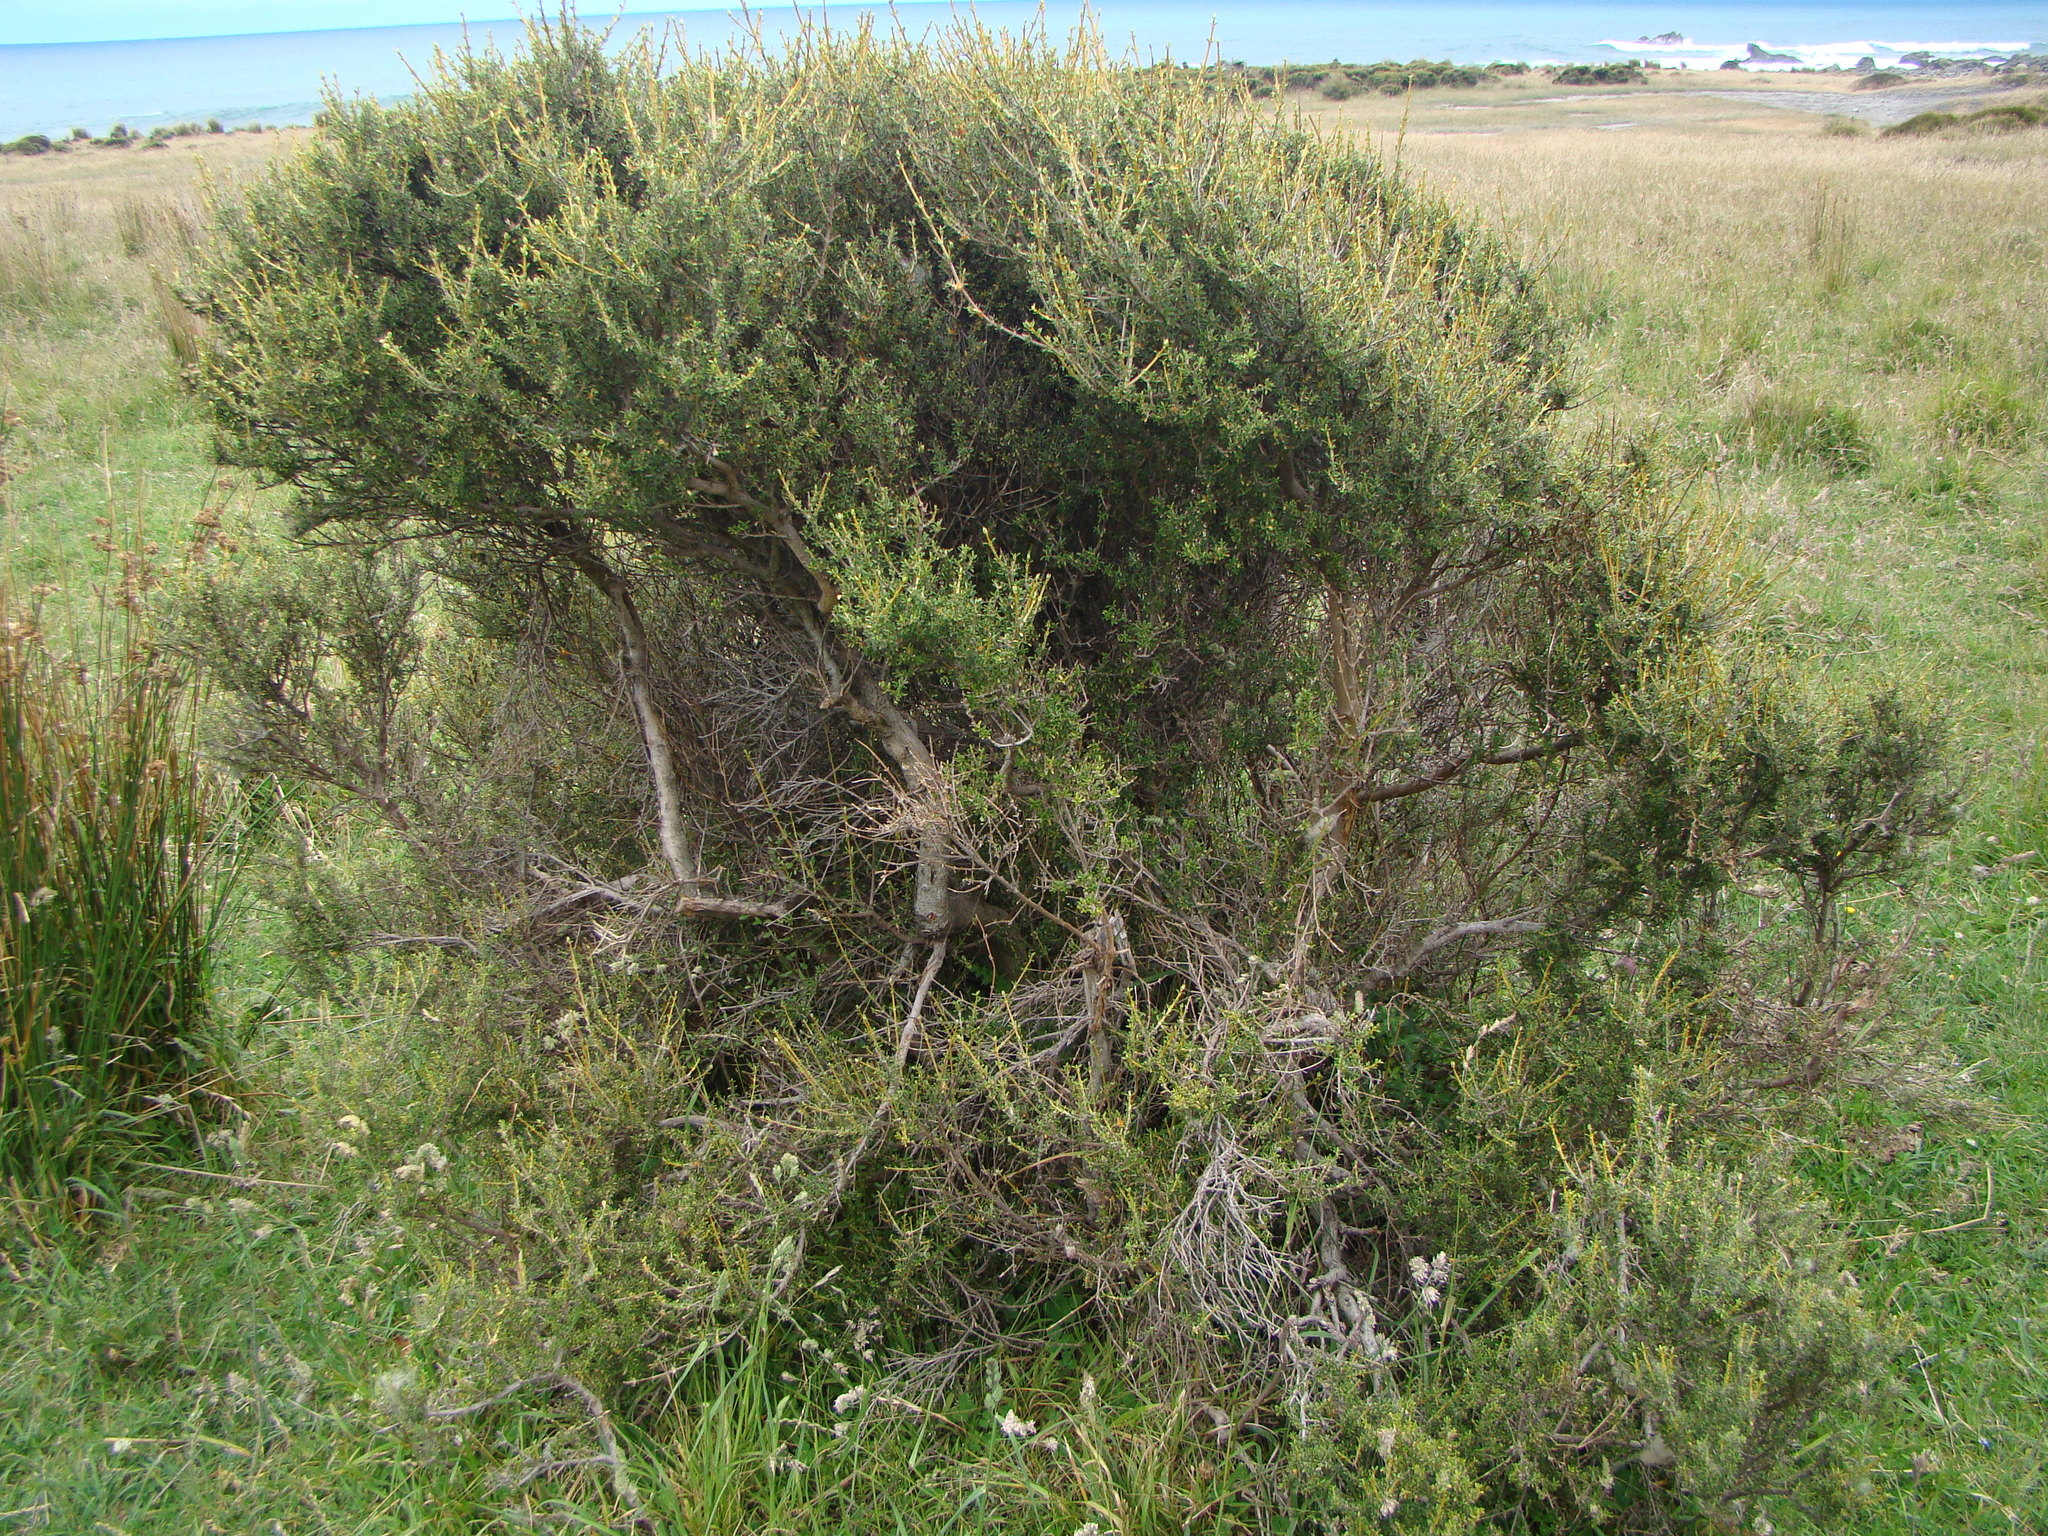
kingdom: Plantae
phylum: Tracheophyta
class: Magnoliopsida
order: Asterales
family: Asteraceae
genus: Olearia
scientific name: Olearia solandri
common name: Coastal daisybush
